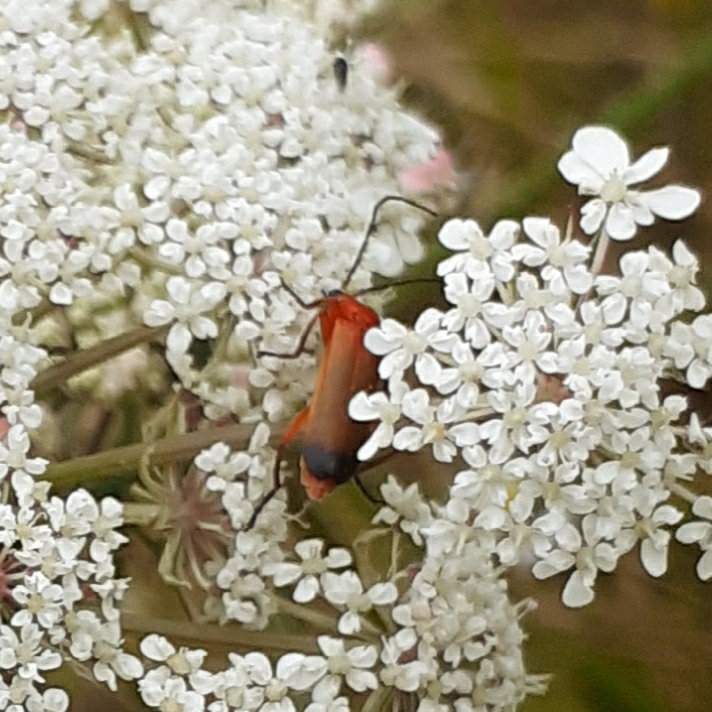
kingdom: Animalia
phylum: Arthropoda
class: Insecta
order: Coleoptera
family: Cantharidae
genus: Rhagonycha
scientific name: Rhagonycha fulva
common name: Common red soldier beetle
